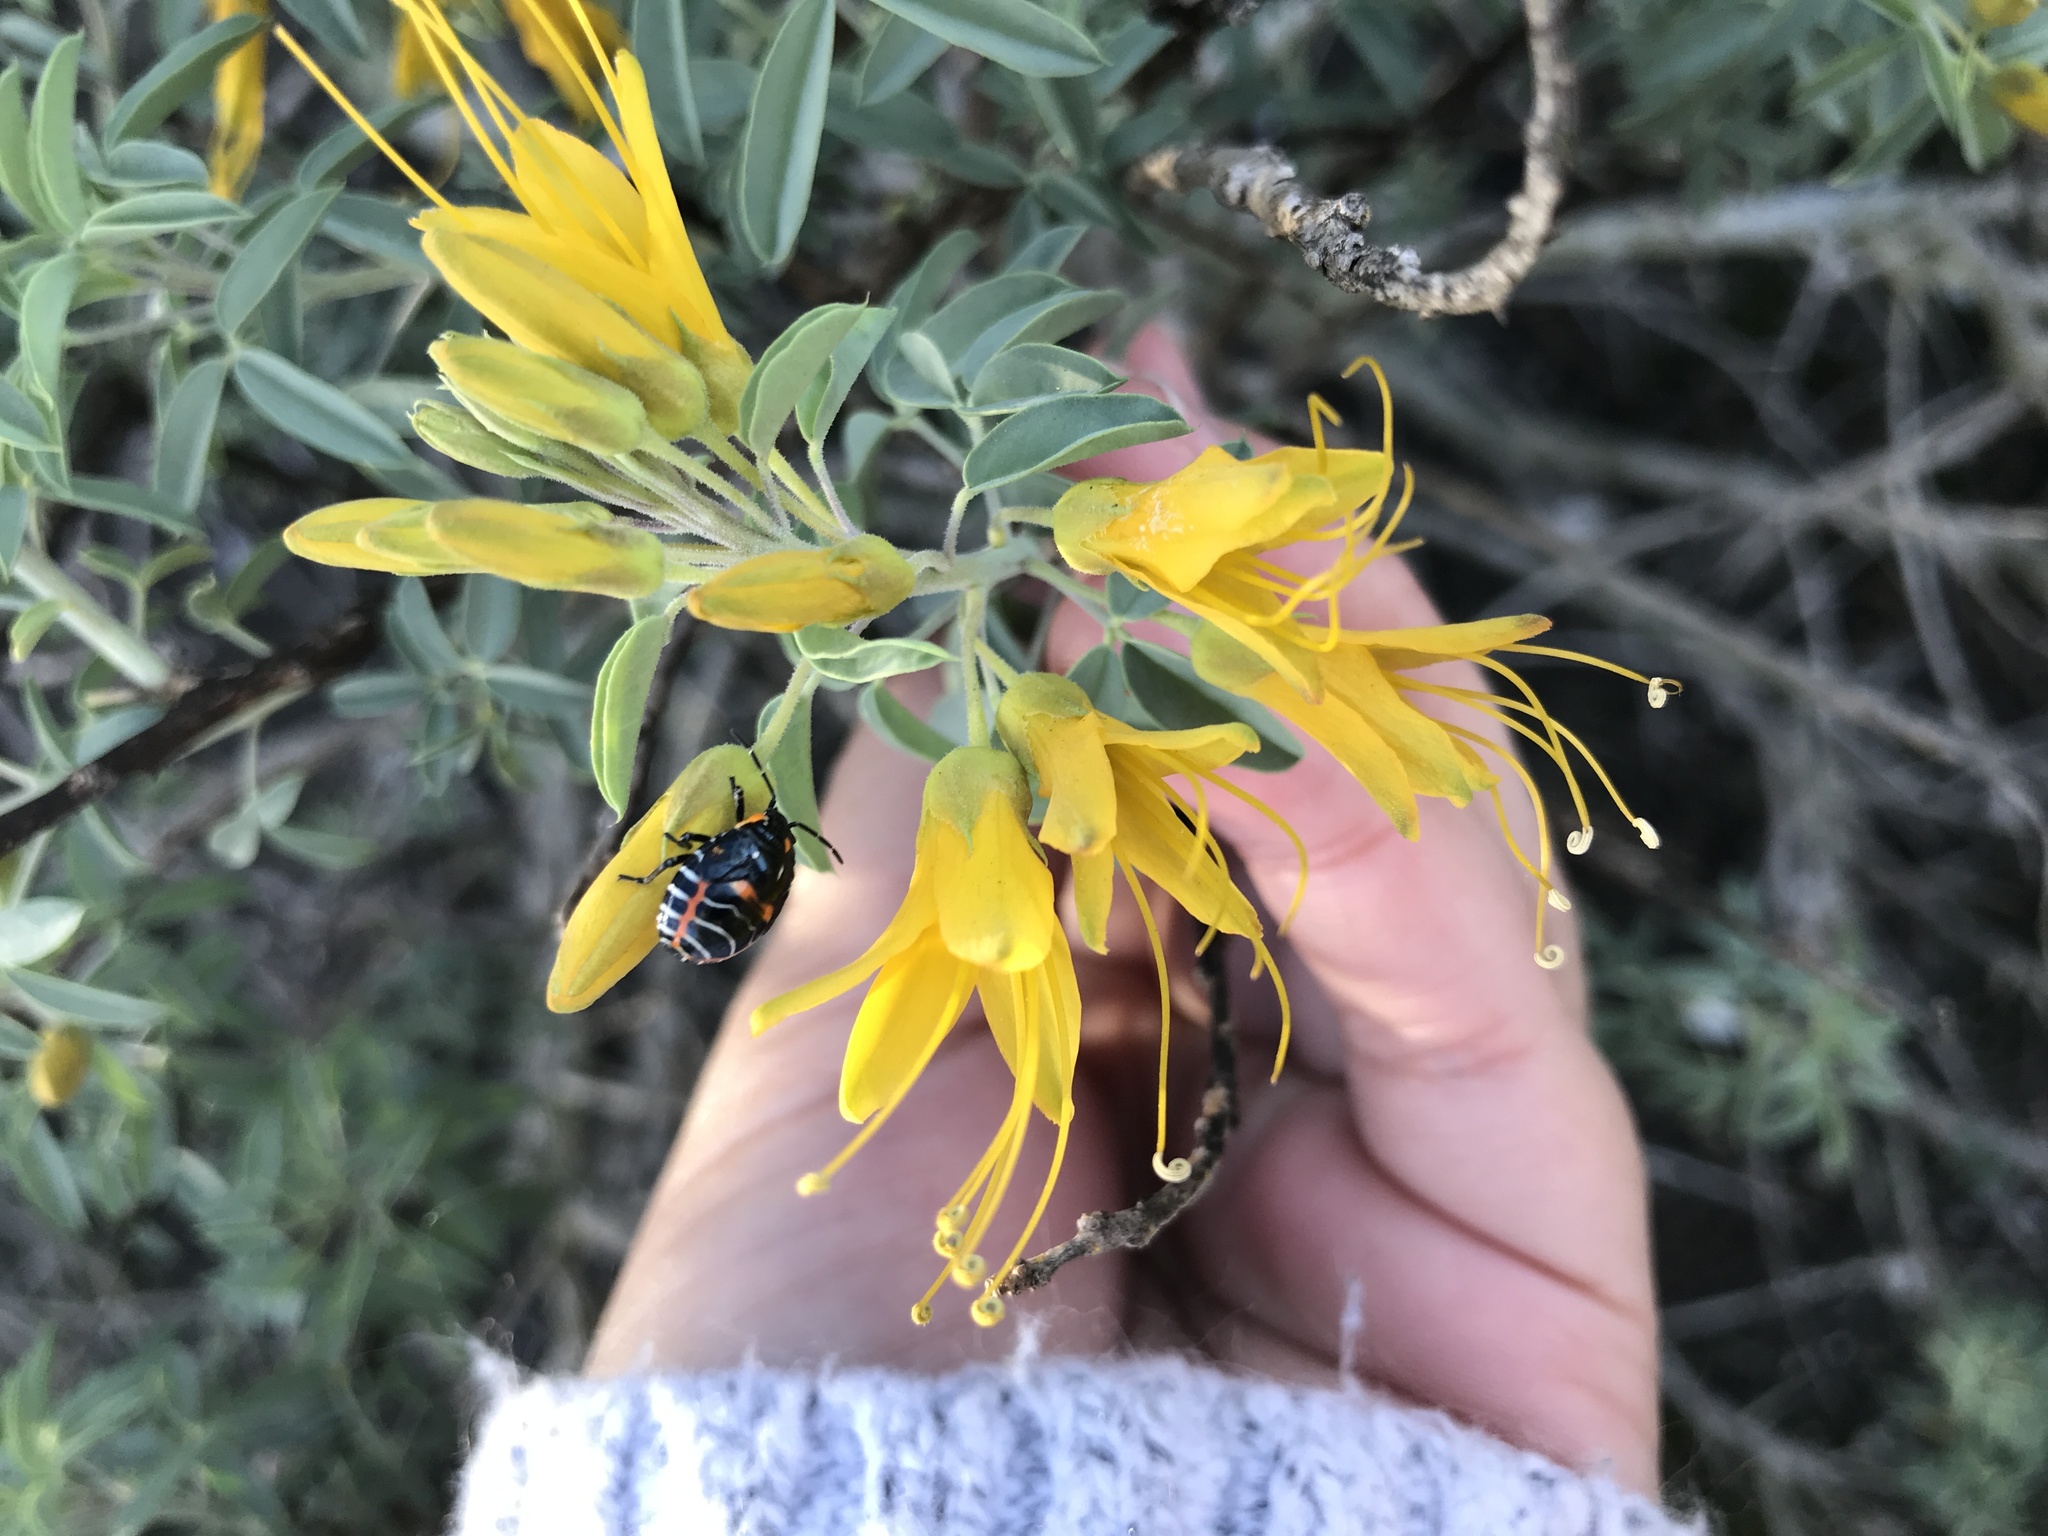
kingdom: Animalia
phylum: Arthropoda
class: Insecta
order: Hemiptera
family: Pentatomidae
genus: Murgantia
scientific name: Murgantia histrionica
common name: Harlequin bug
